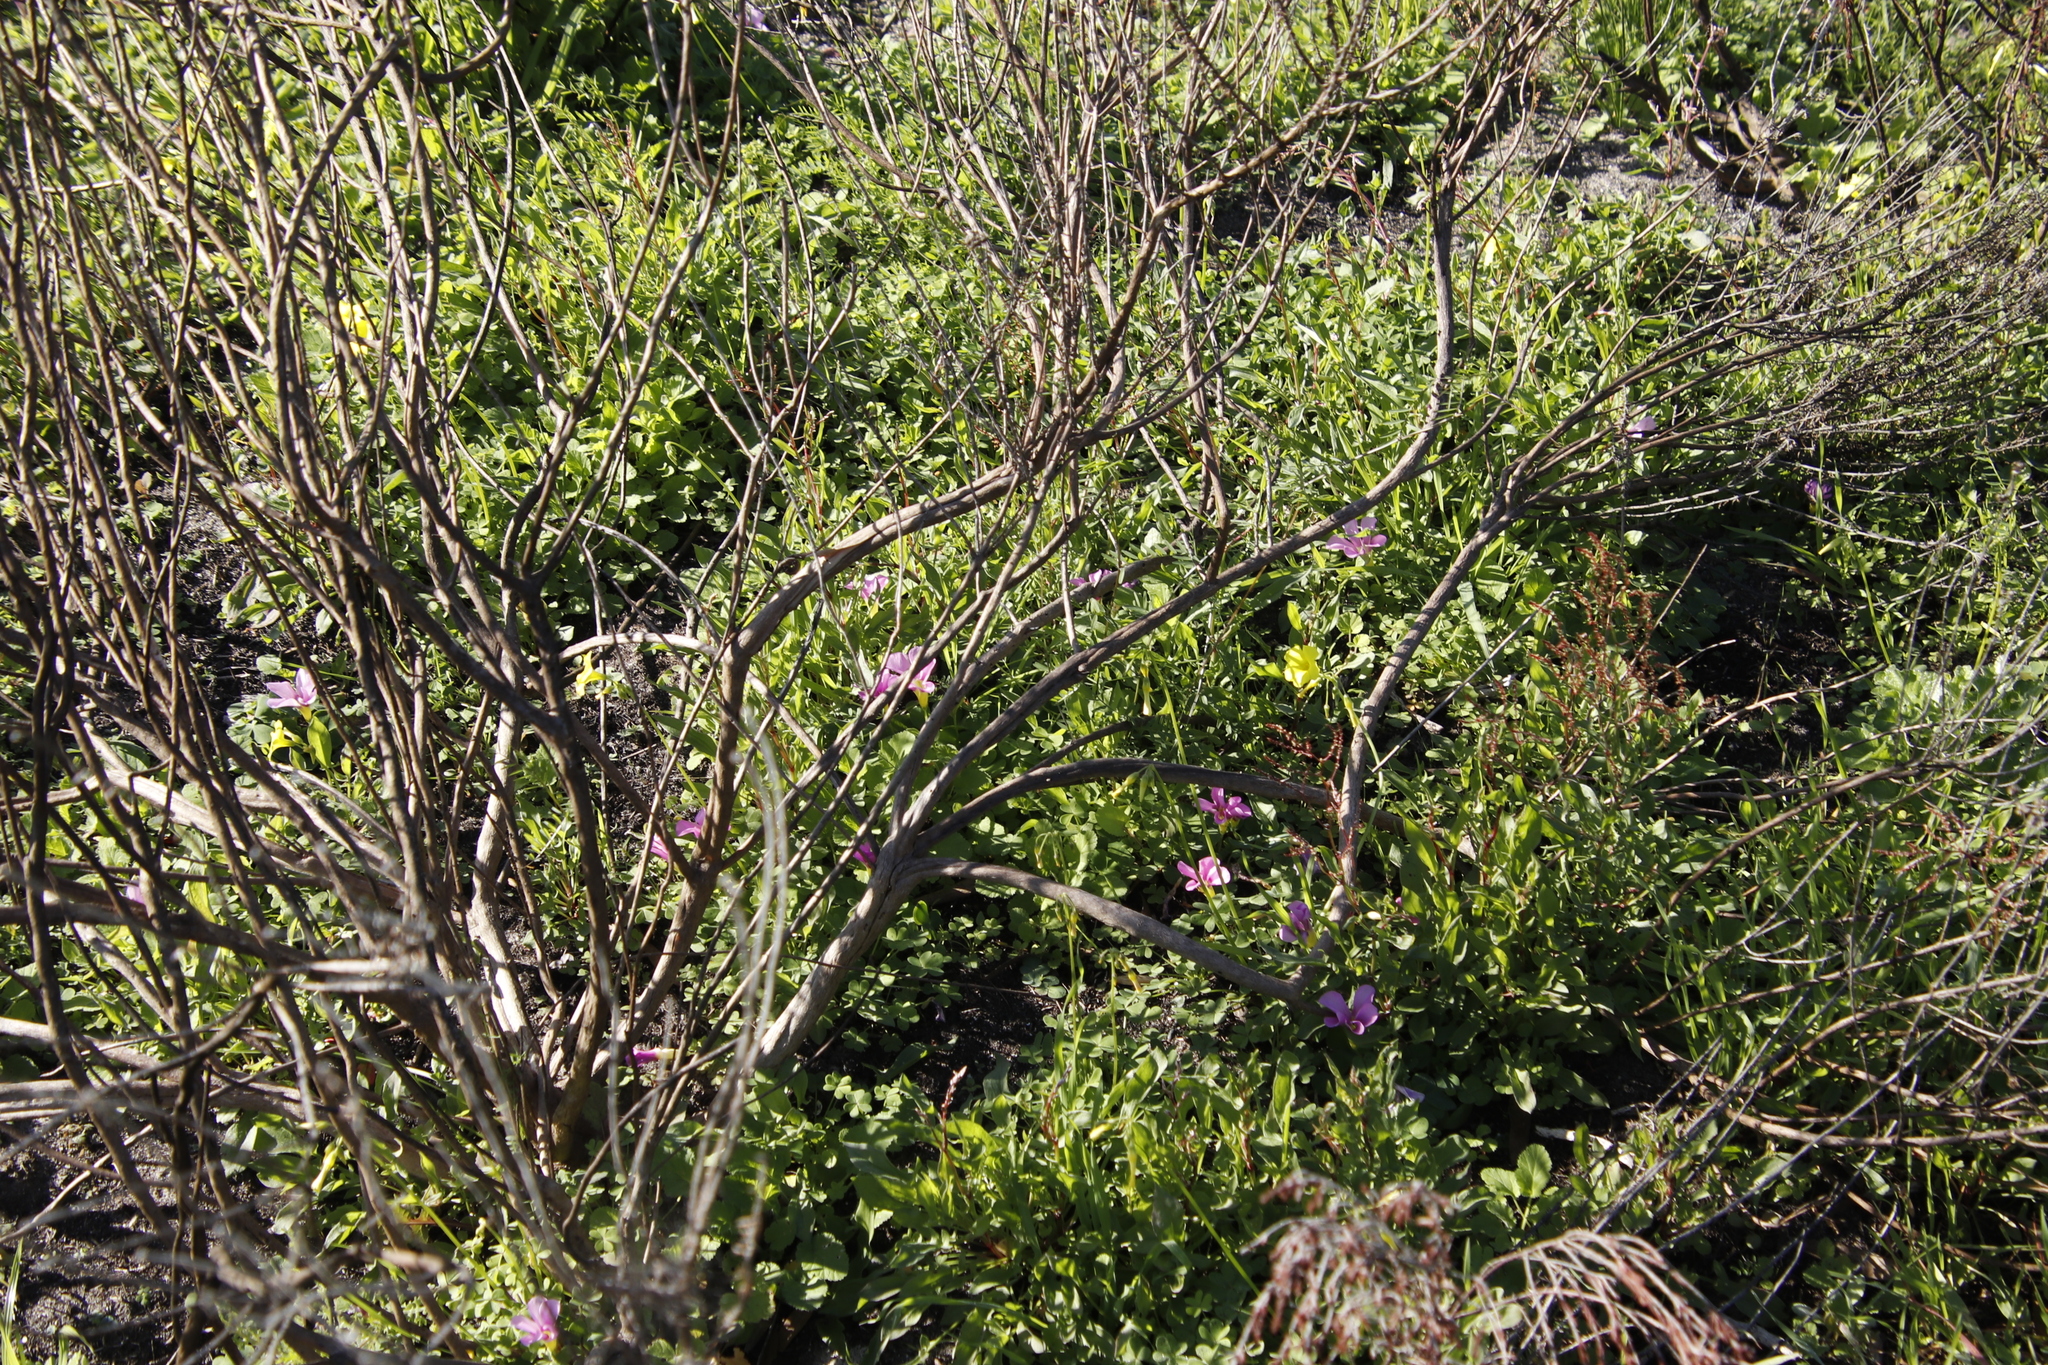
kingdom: Plantae
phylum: Tracheophyta
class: Magnoliopsida
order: Oxalidales
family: Oxalidaceae
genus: Oxalis
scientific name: Oxalis purpurea
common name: Purple woodsorrel
